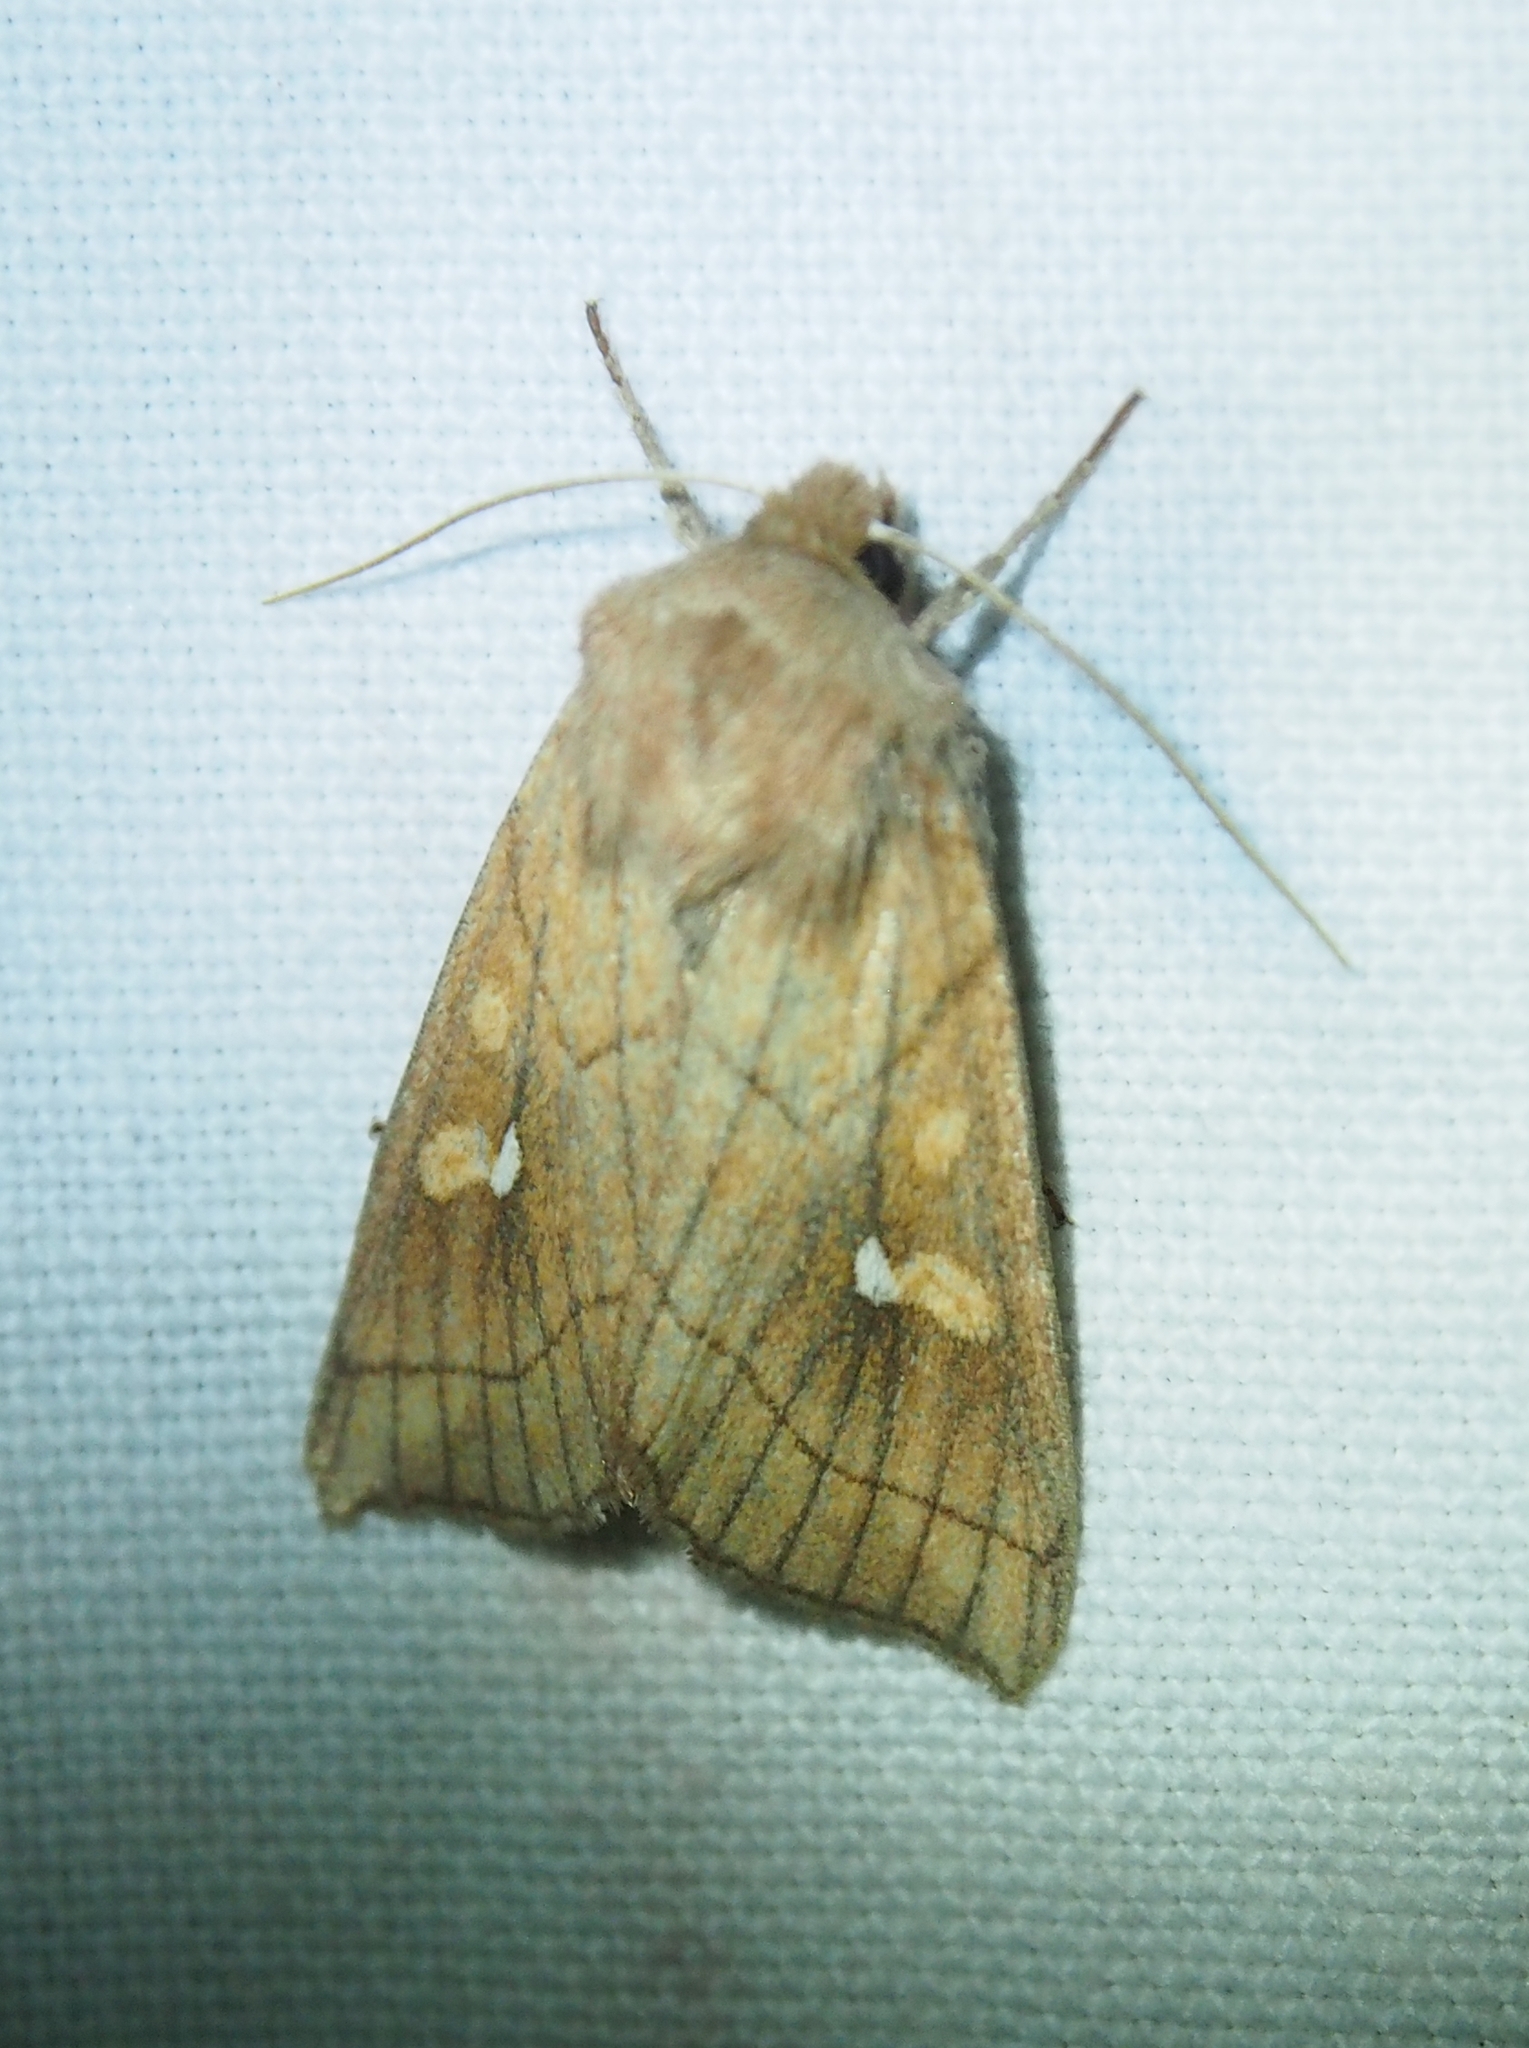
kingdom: Animalia
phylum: Arthropoda
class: Insecta
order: Lepidoptera
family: Noctuidae
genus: Mythimna
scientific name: Mythimna conigera
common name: Brown-line bright-eye
